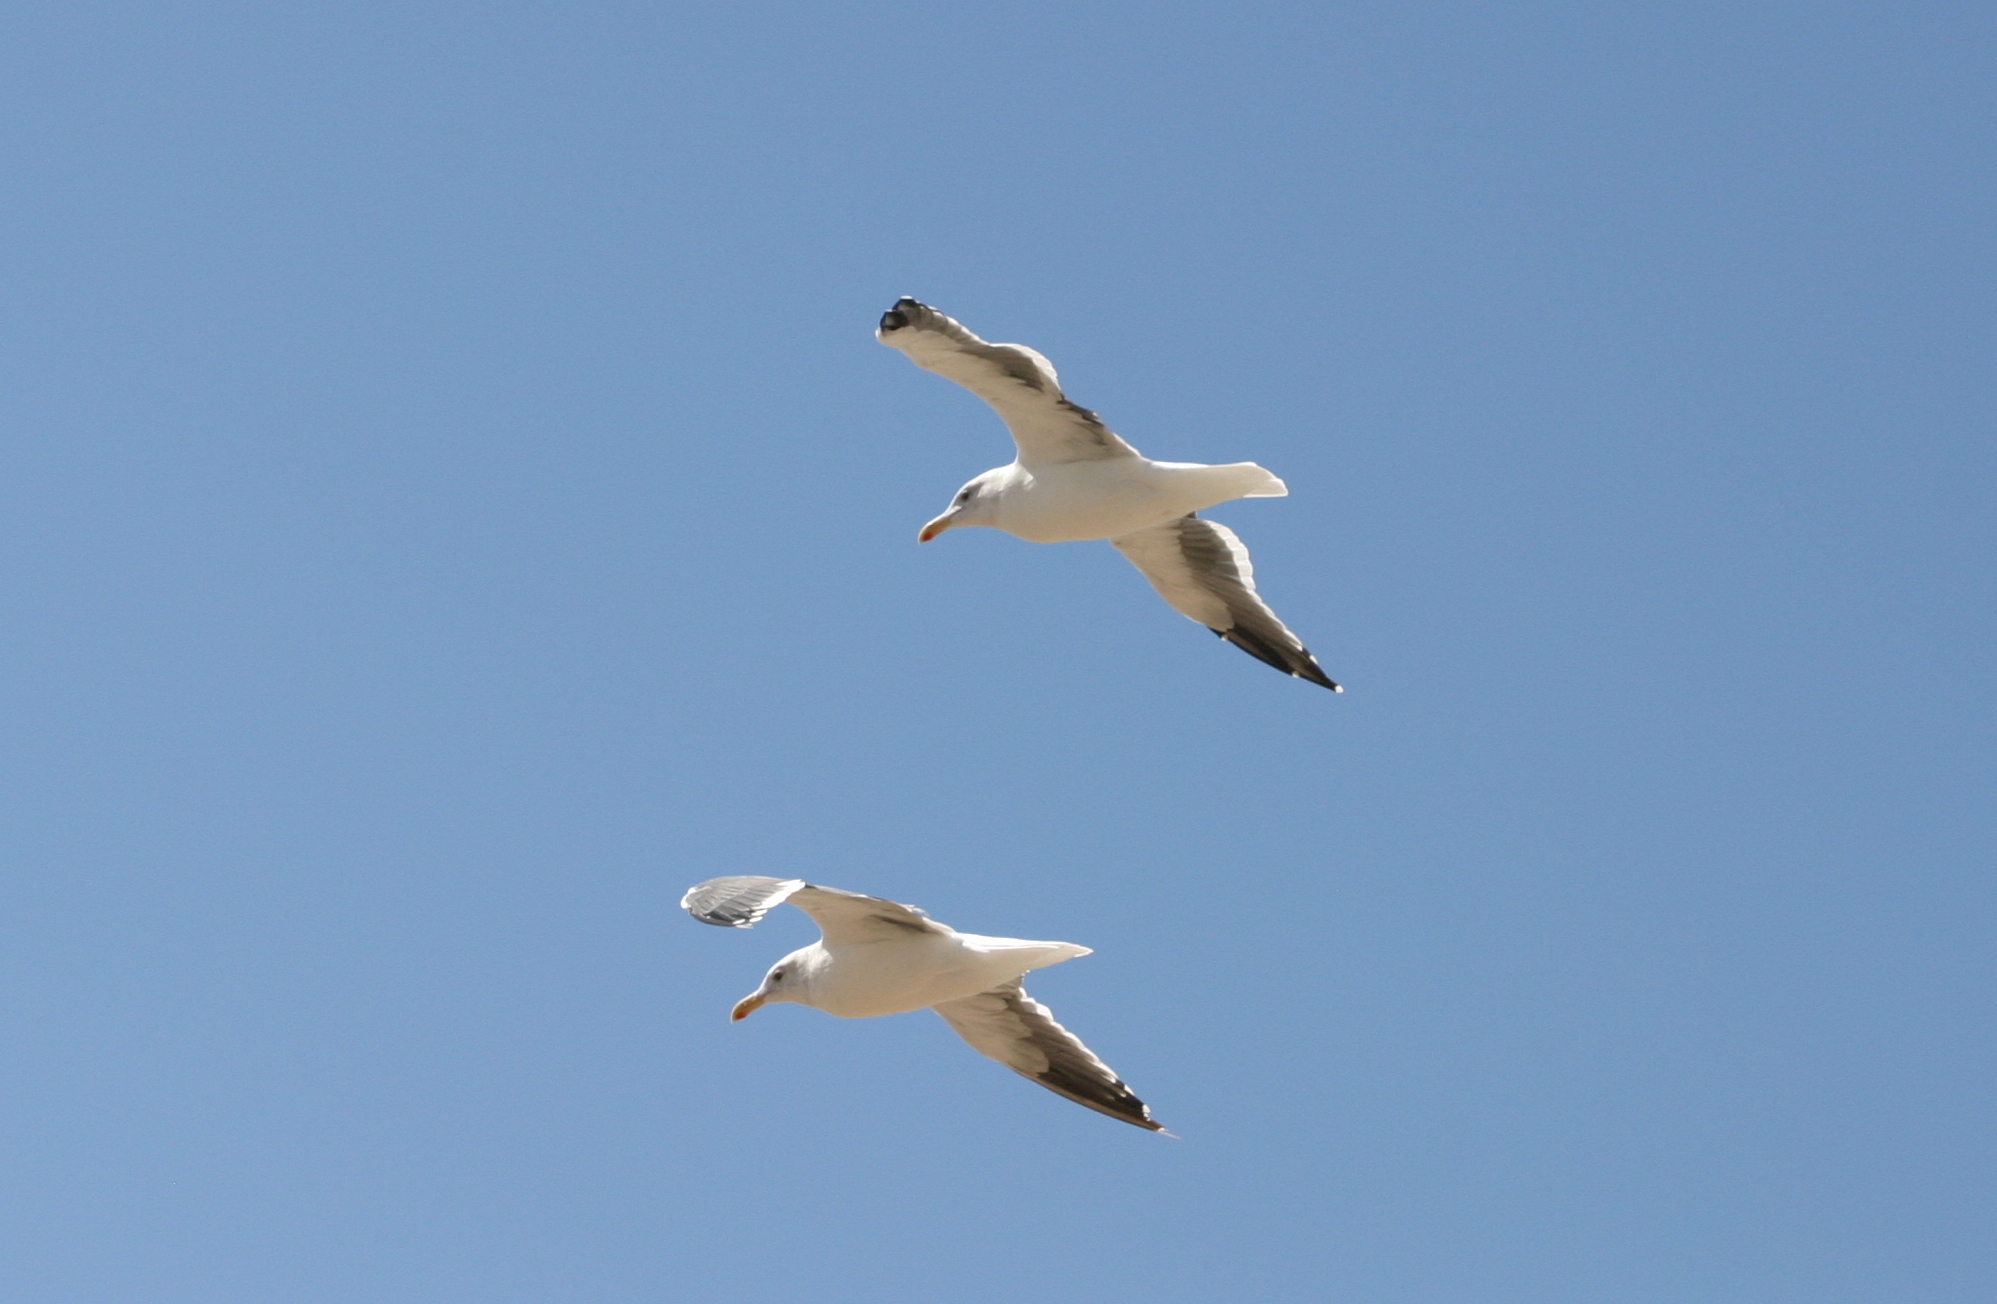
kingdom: Animalia
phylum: Chordata
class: Aves
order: Charadriiformes
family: Laridae
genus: Larus
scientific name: Larus occidentalis
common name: Western gull
